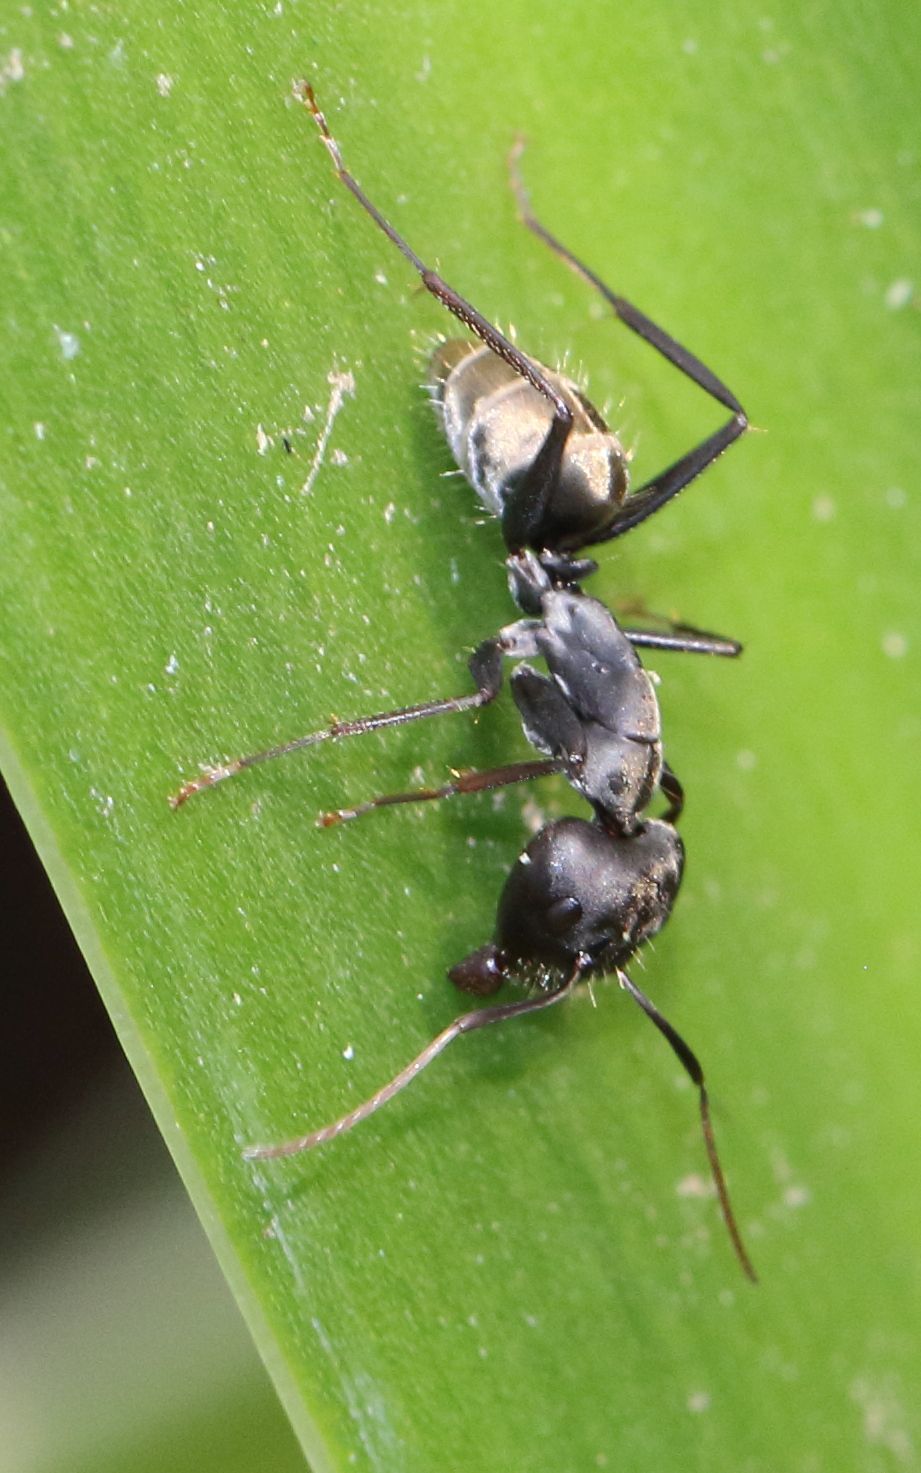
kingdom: Animalia
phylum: Arthropoda
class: Insecta
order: Hymenoptera
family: Formicidae
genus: Camponotus
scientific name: Camponotus cinctellus
